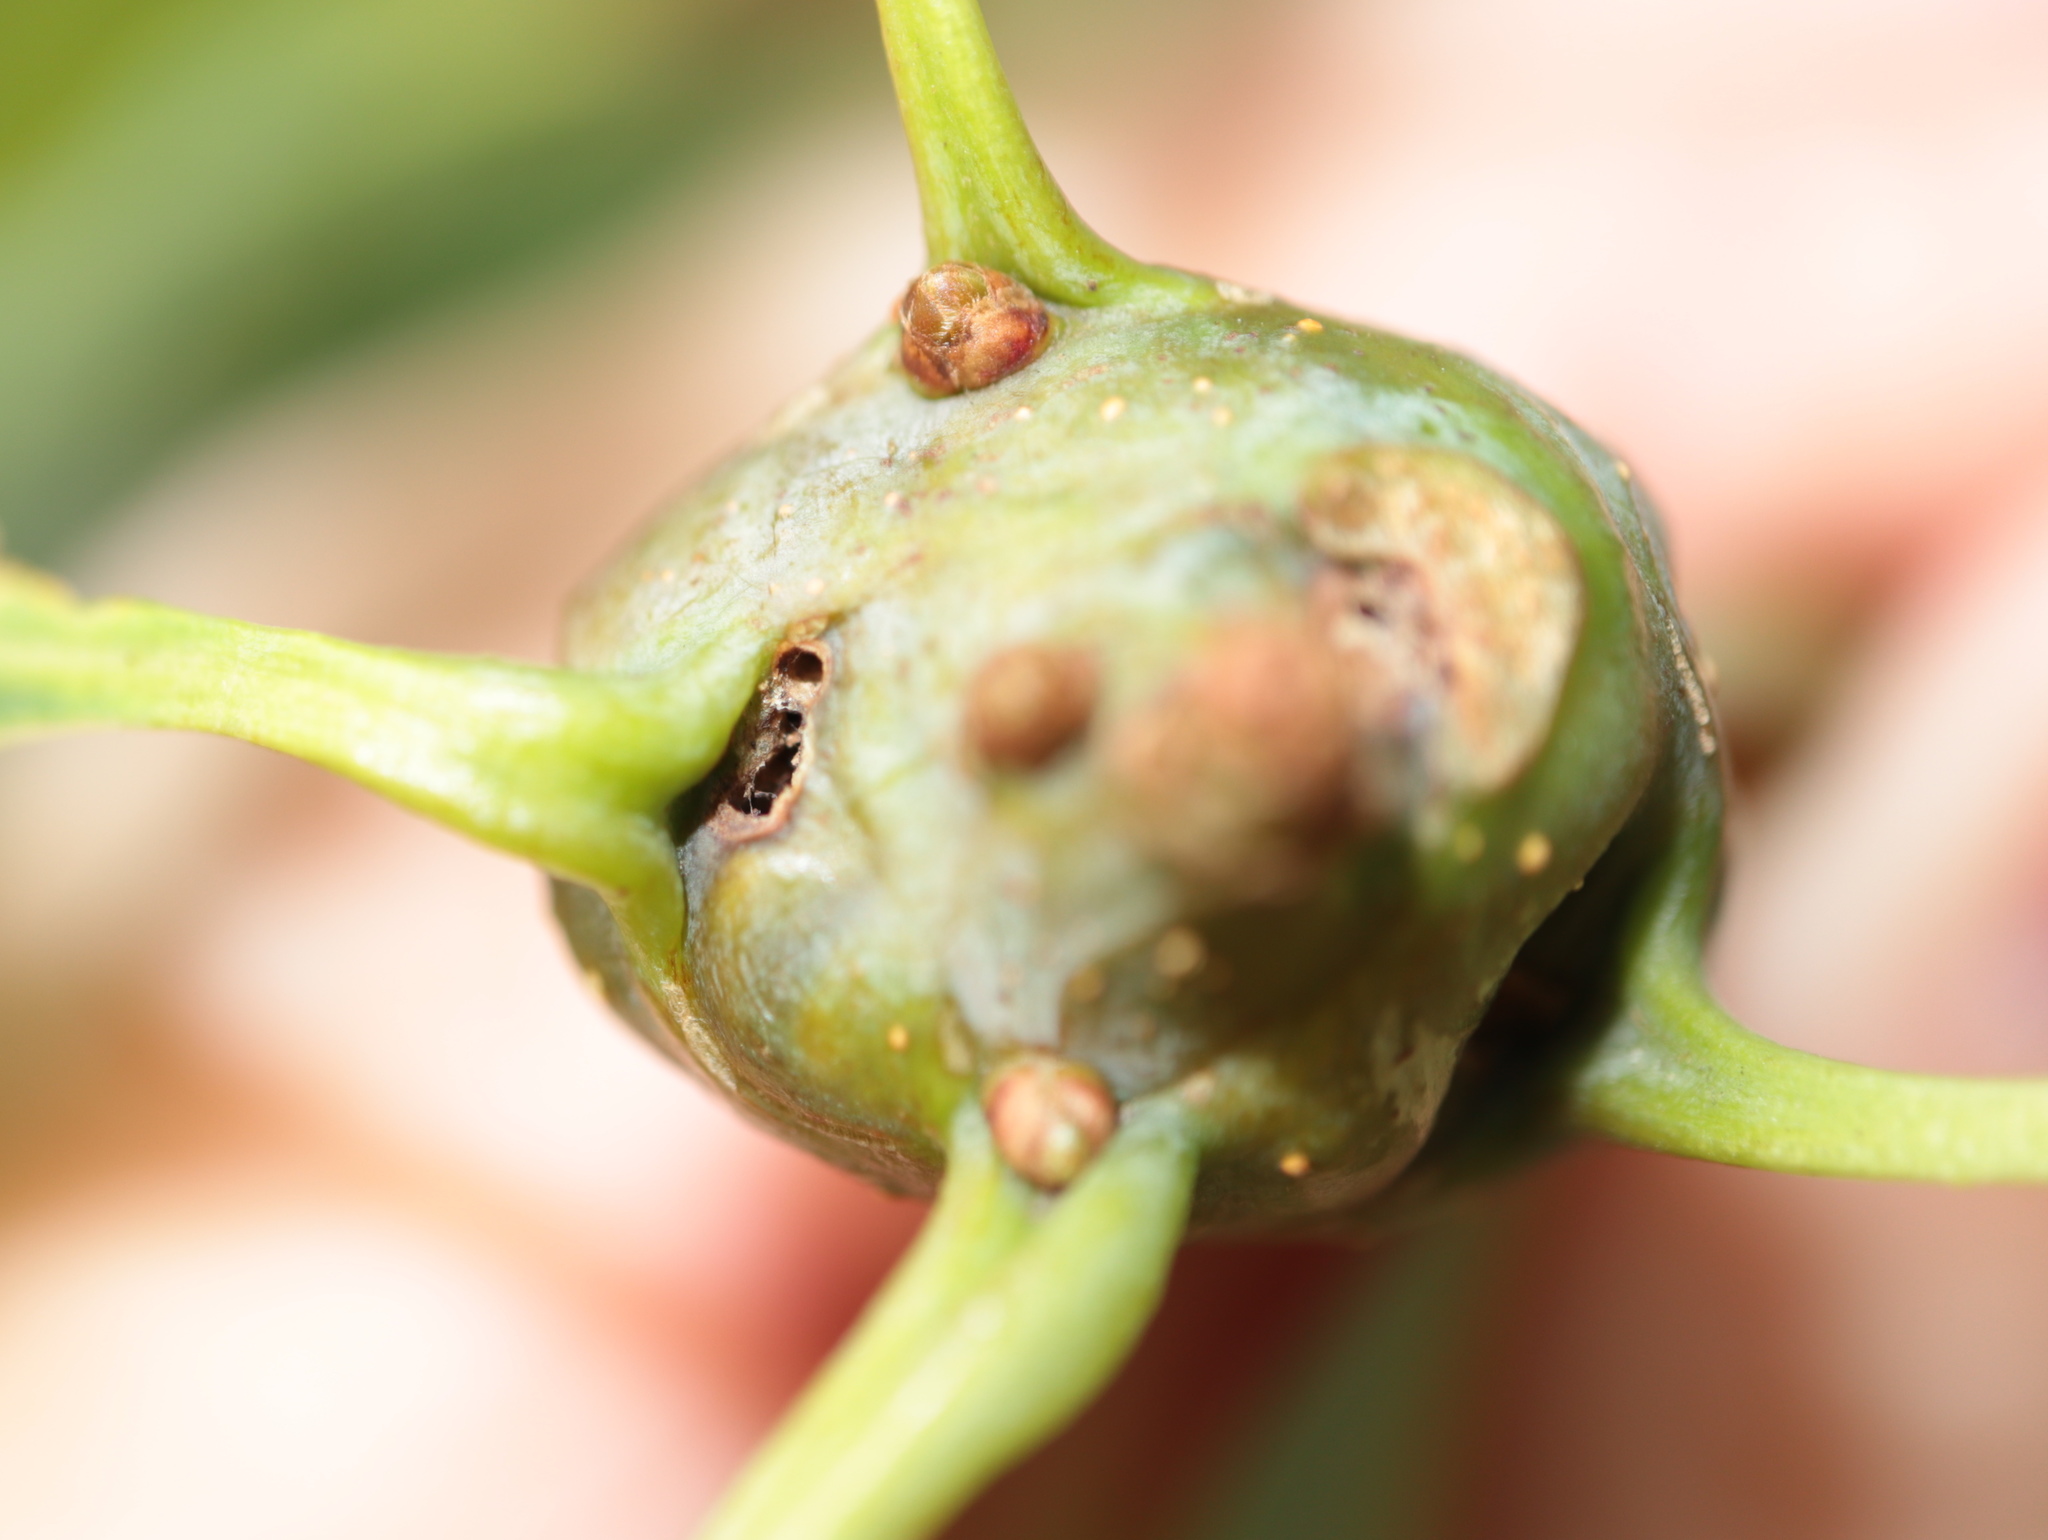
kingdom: Animalia
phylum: Arthropoda
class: Insecta
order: Hymenoptera
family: Cynipidae
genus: Callirhytis
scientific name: Callirhytis clavula
